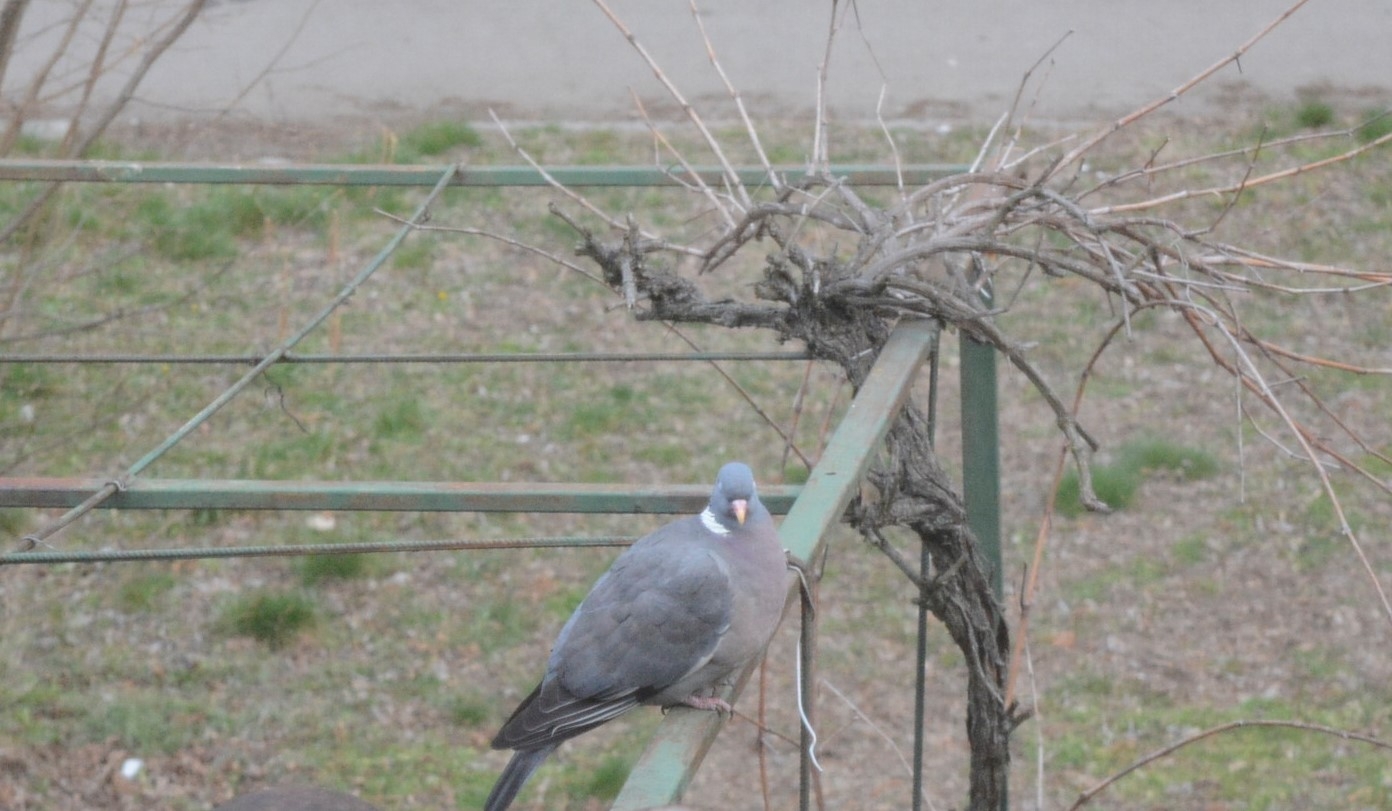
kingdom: Animalia
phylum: Chordata
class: Aves
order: Columbiformes
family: Columbidae
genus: Columba
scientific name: Columba palumbus
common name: Common wood pigeon
